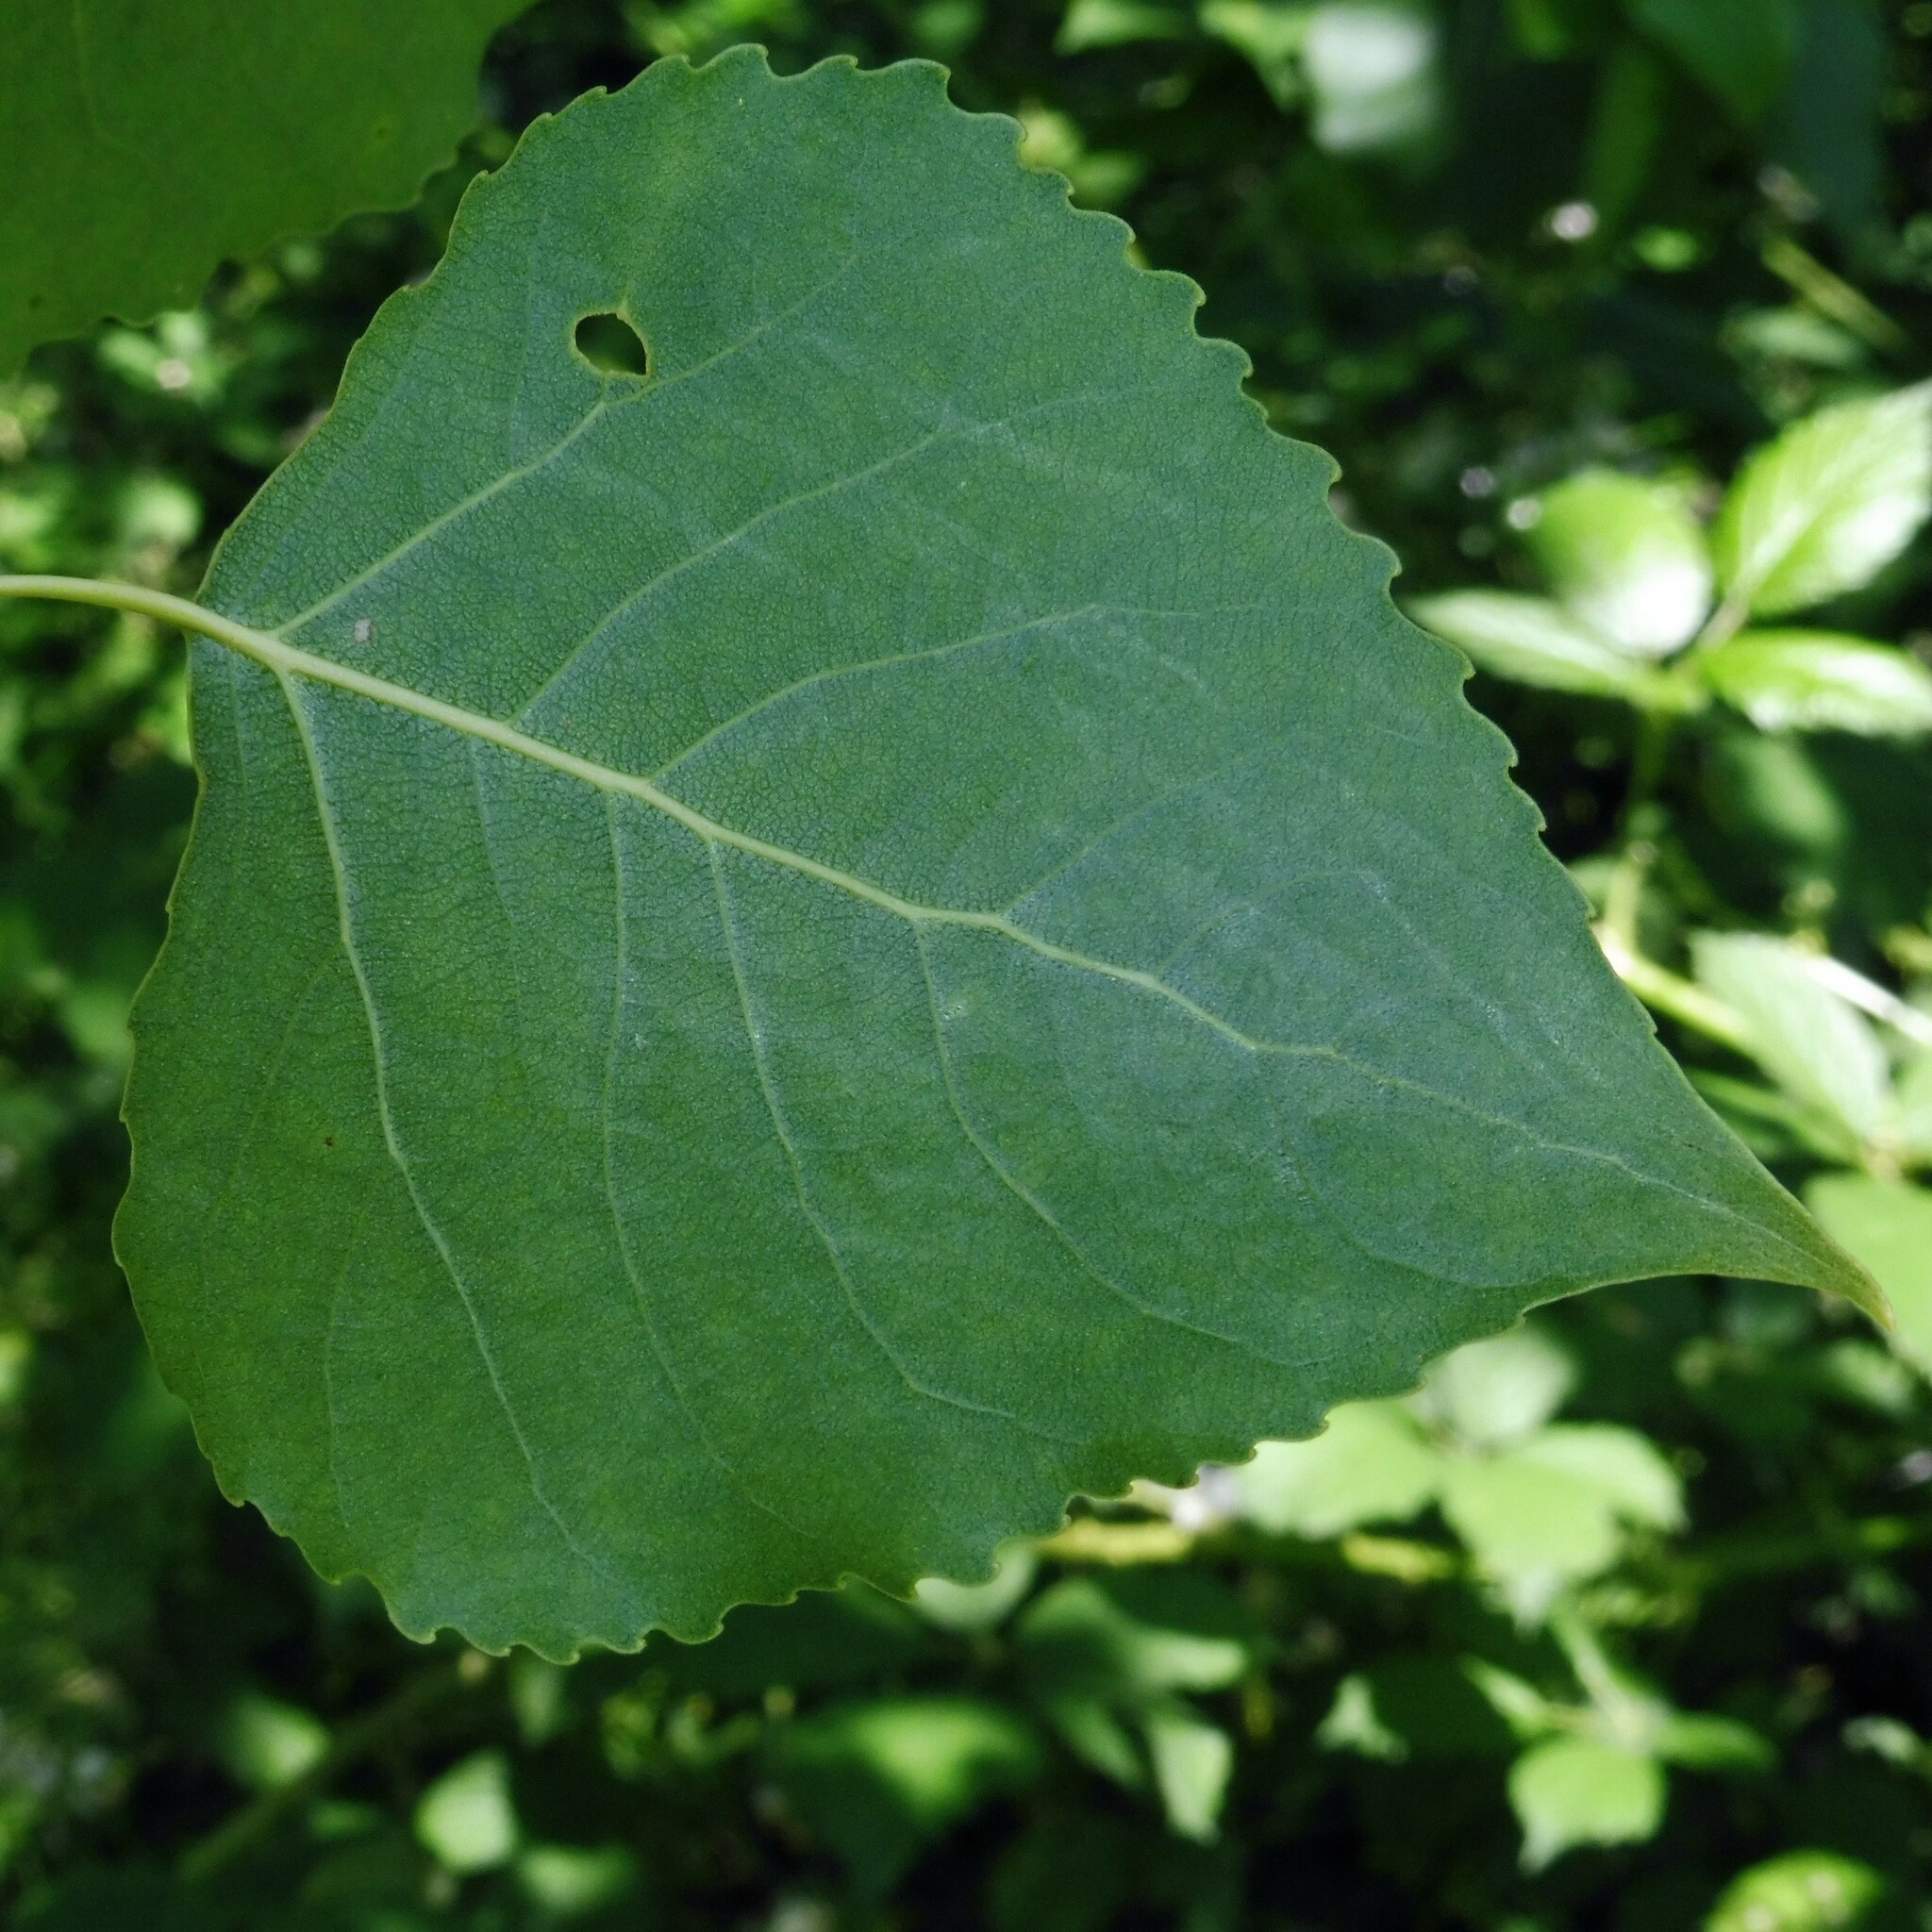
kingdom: Plantae
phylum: Tracheophyta
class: Magnoliopsida
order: Malpighiales
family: Salicaceae
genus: Populus
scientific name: Populus canadensis
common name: Carolina poplar
